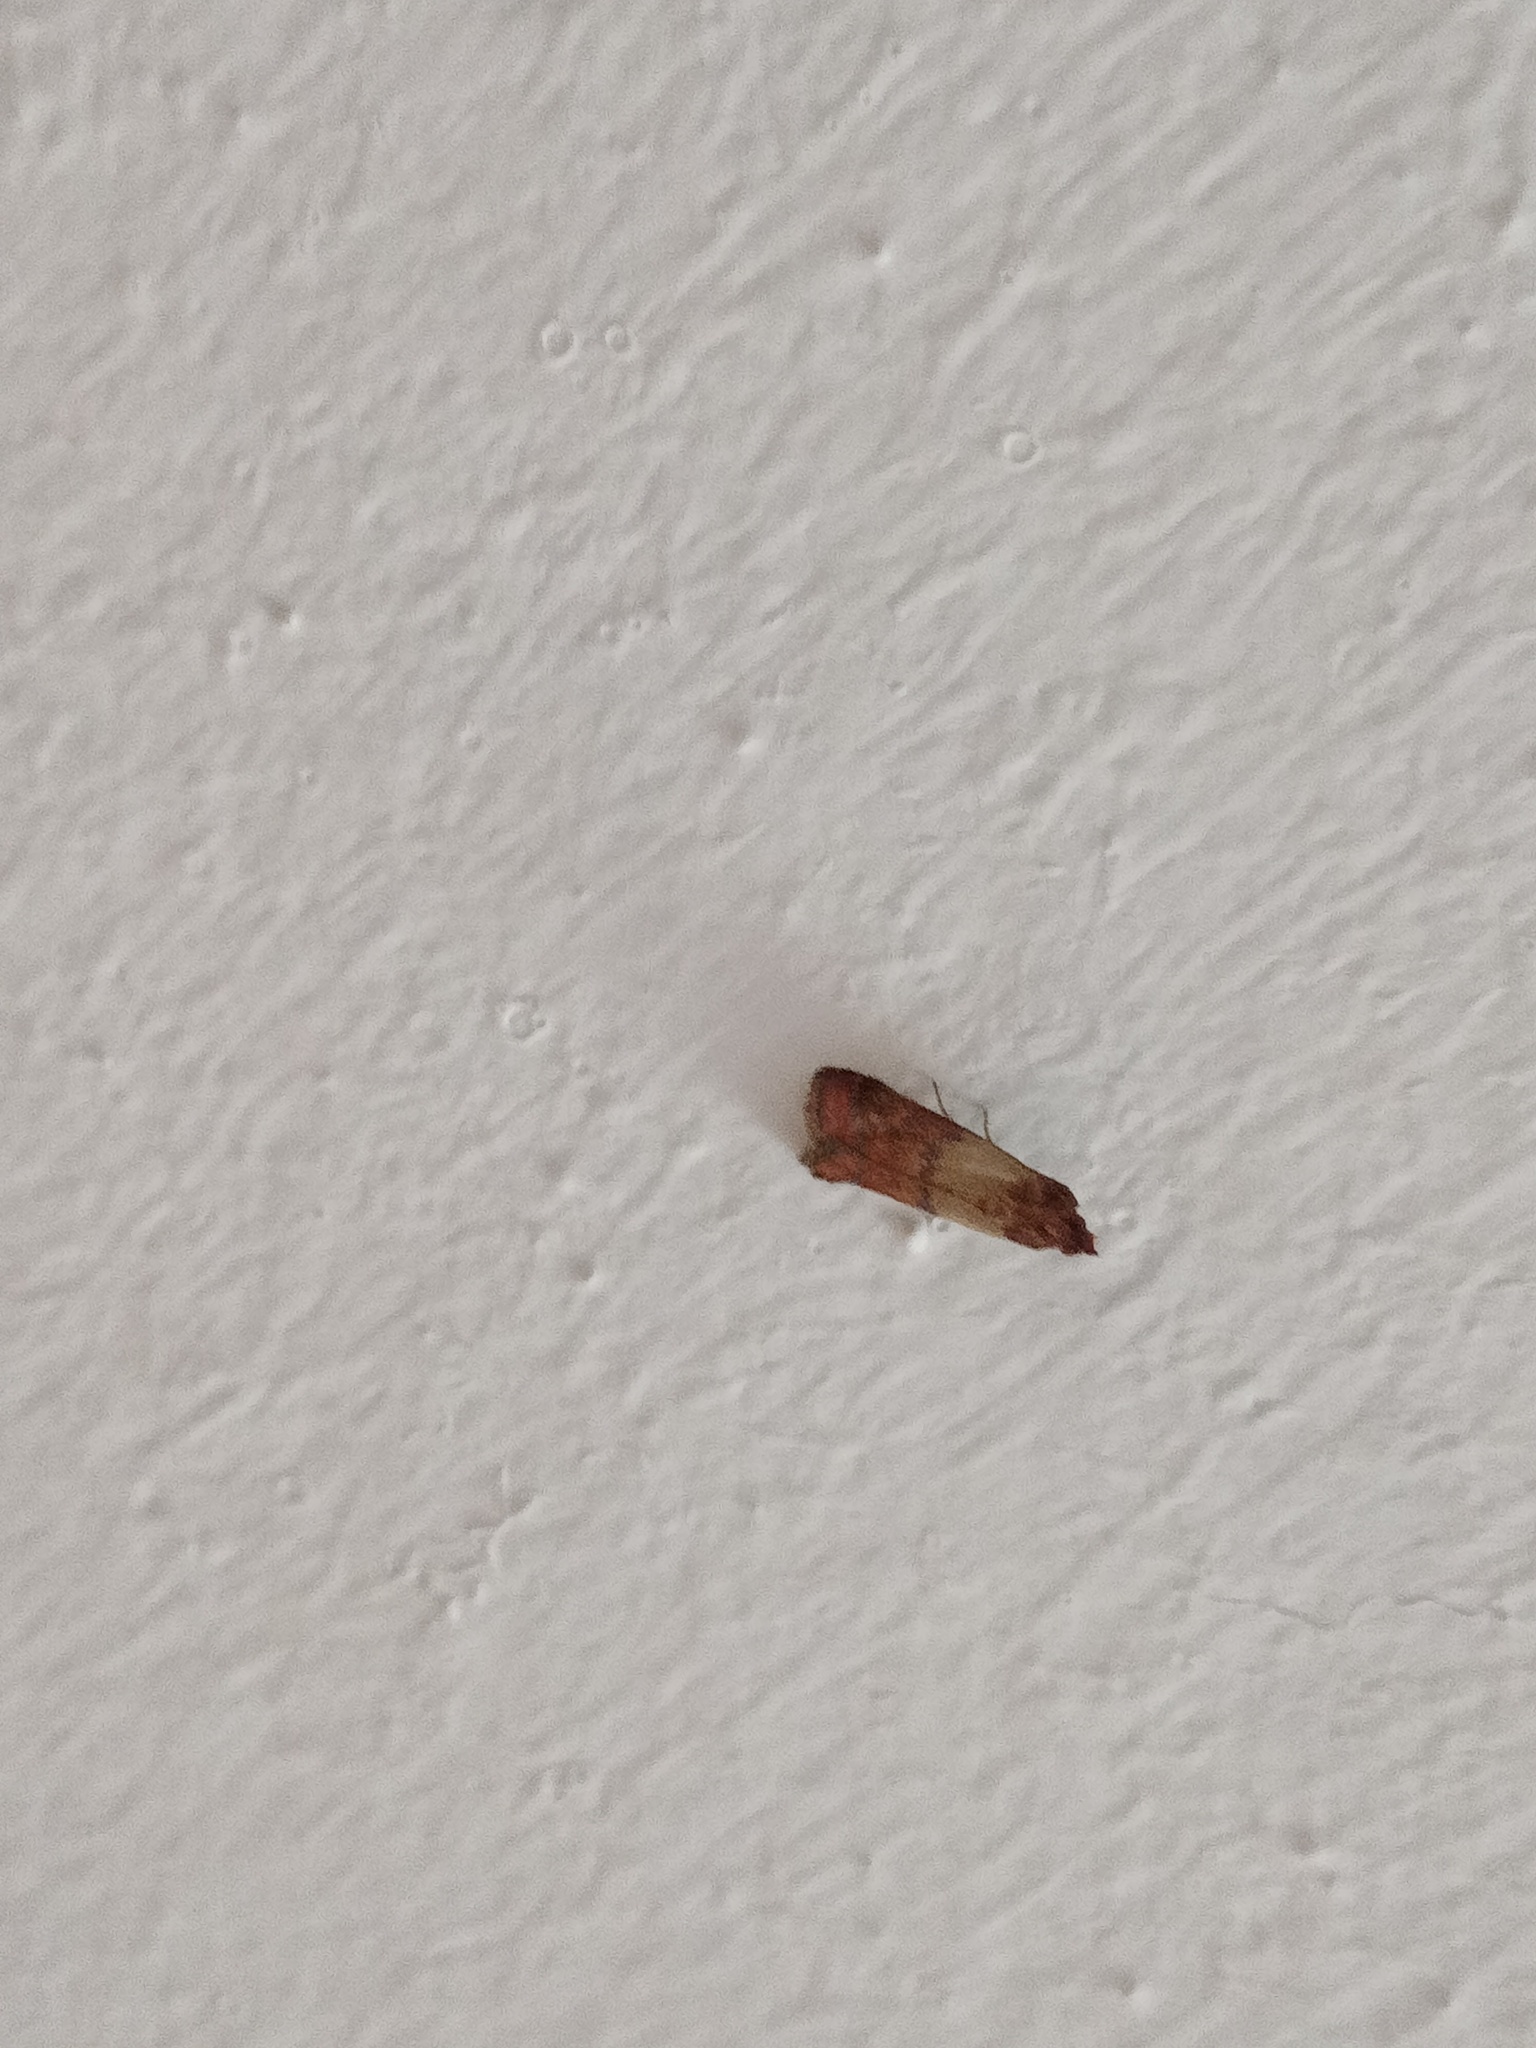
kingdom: Animalia
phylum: Arthropoda
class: Insecta
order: Lepidoptera
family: Pyralidae
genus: Plodia
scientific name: Plodia interpunctella
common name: Indian meal moth
